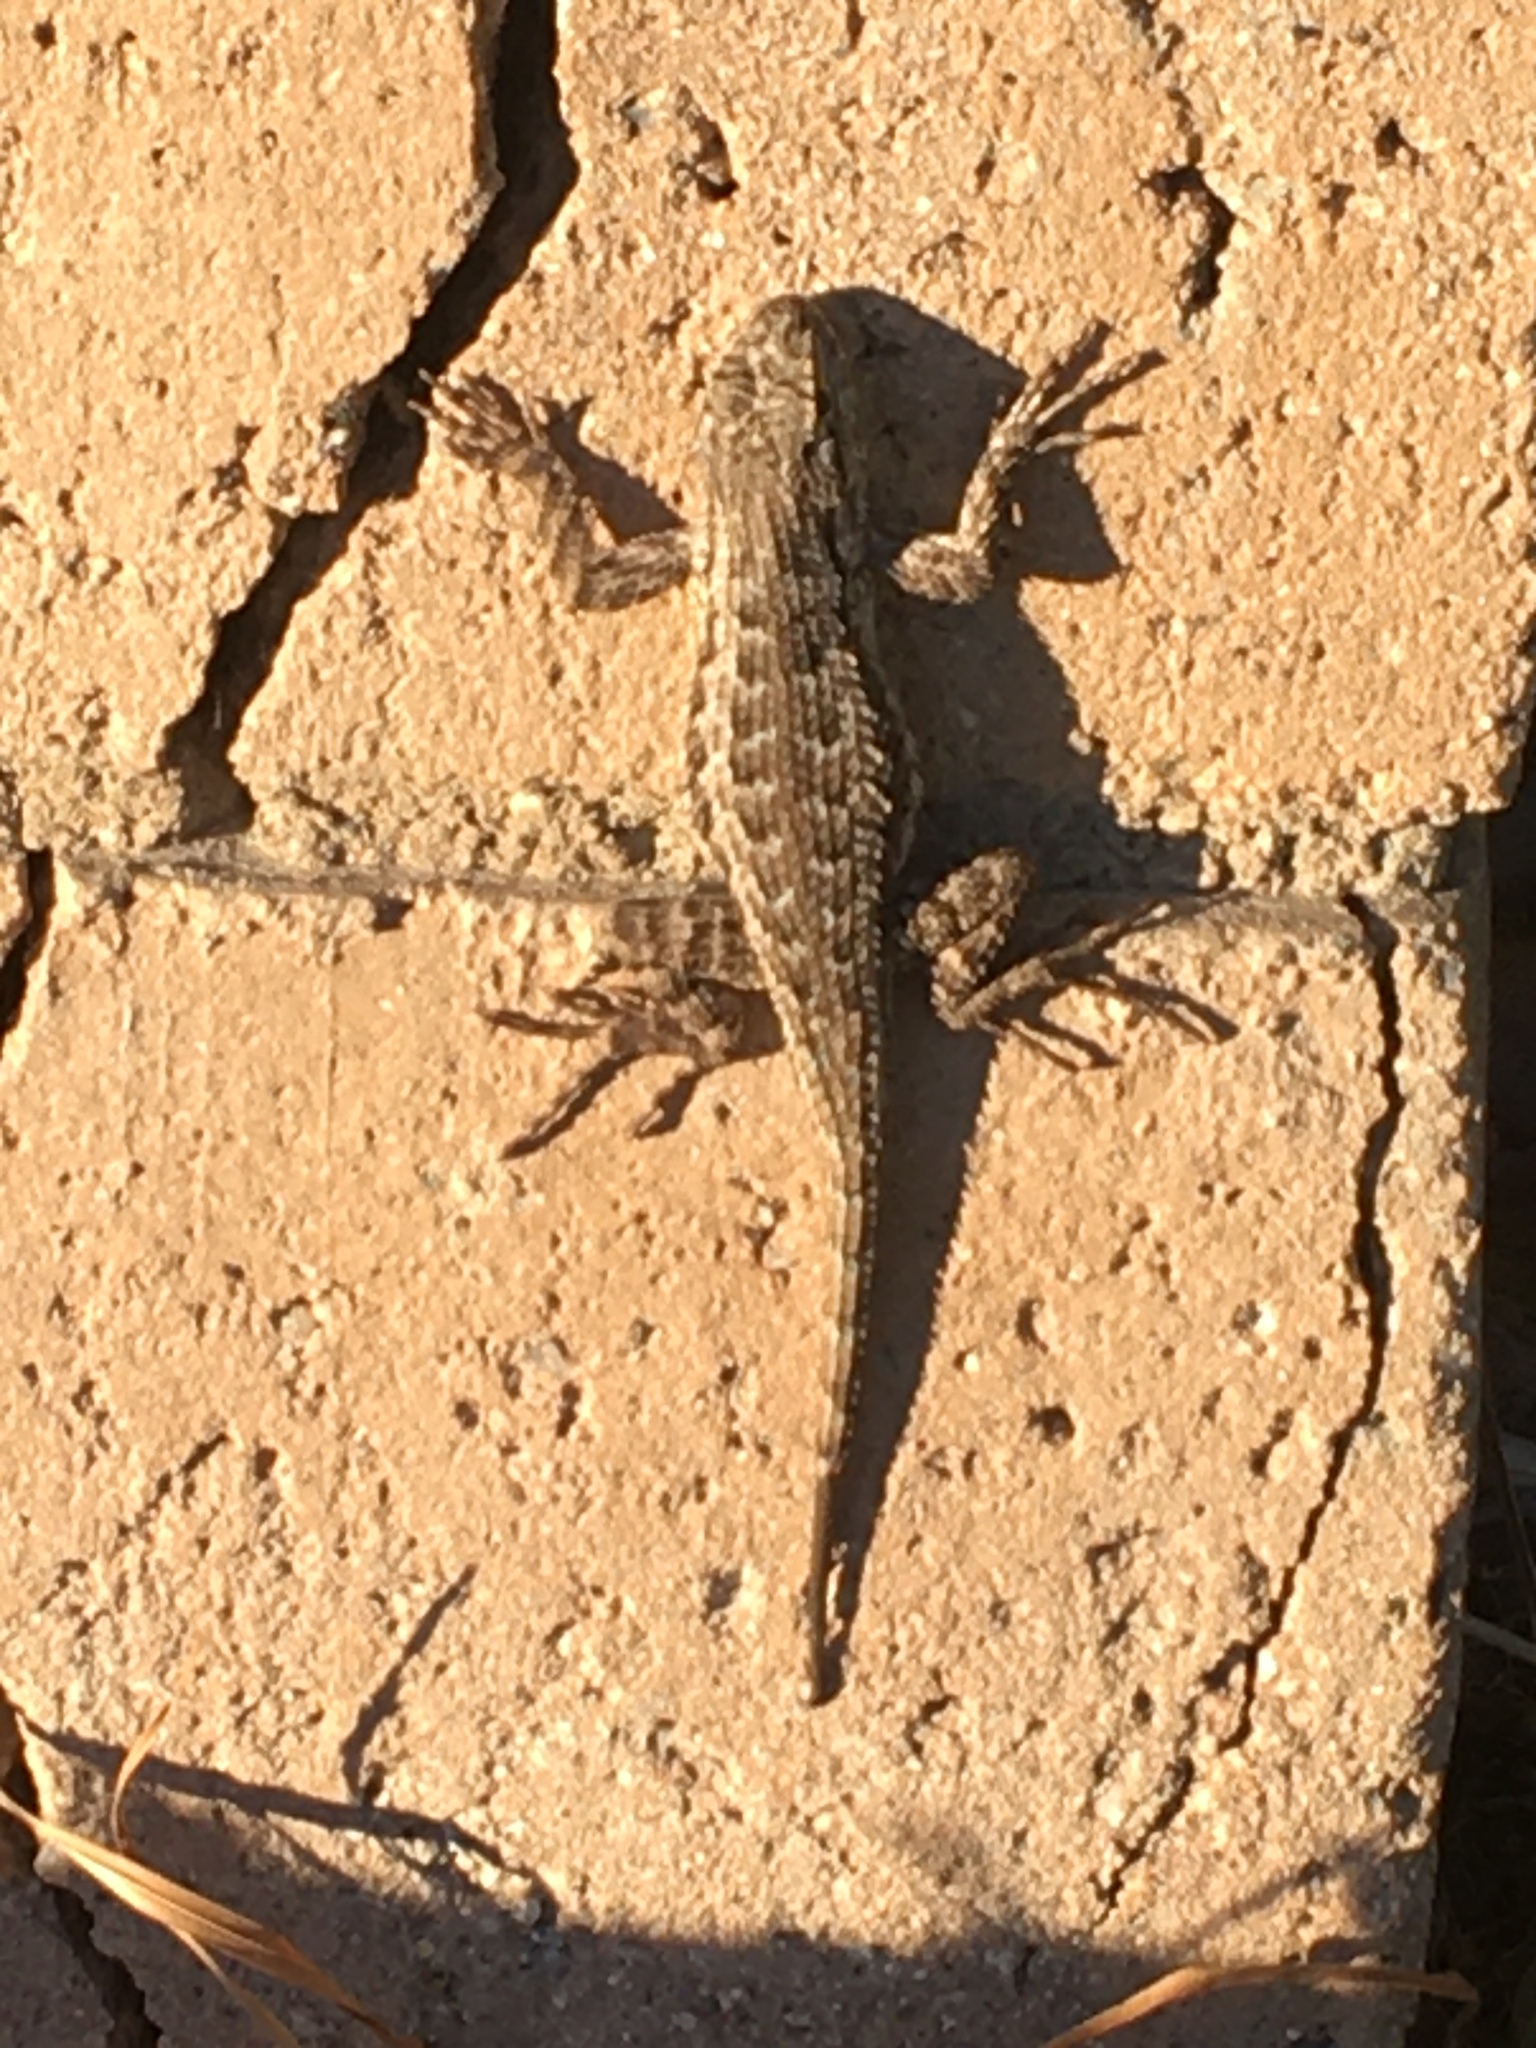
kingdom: Animalia
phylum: Chordata
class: Squamata
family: Phrynosomatidae
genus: Sceloporus
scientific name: Sceloporus occidentalis
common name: Western fence lizard
